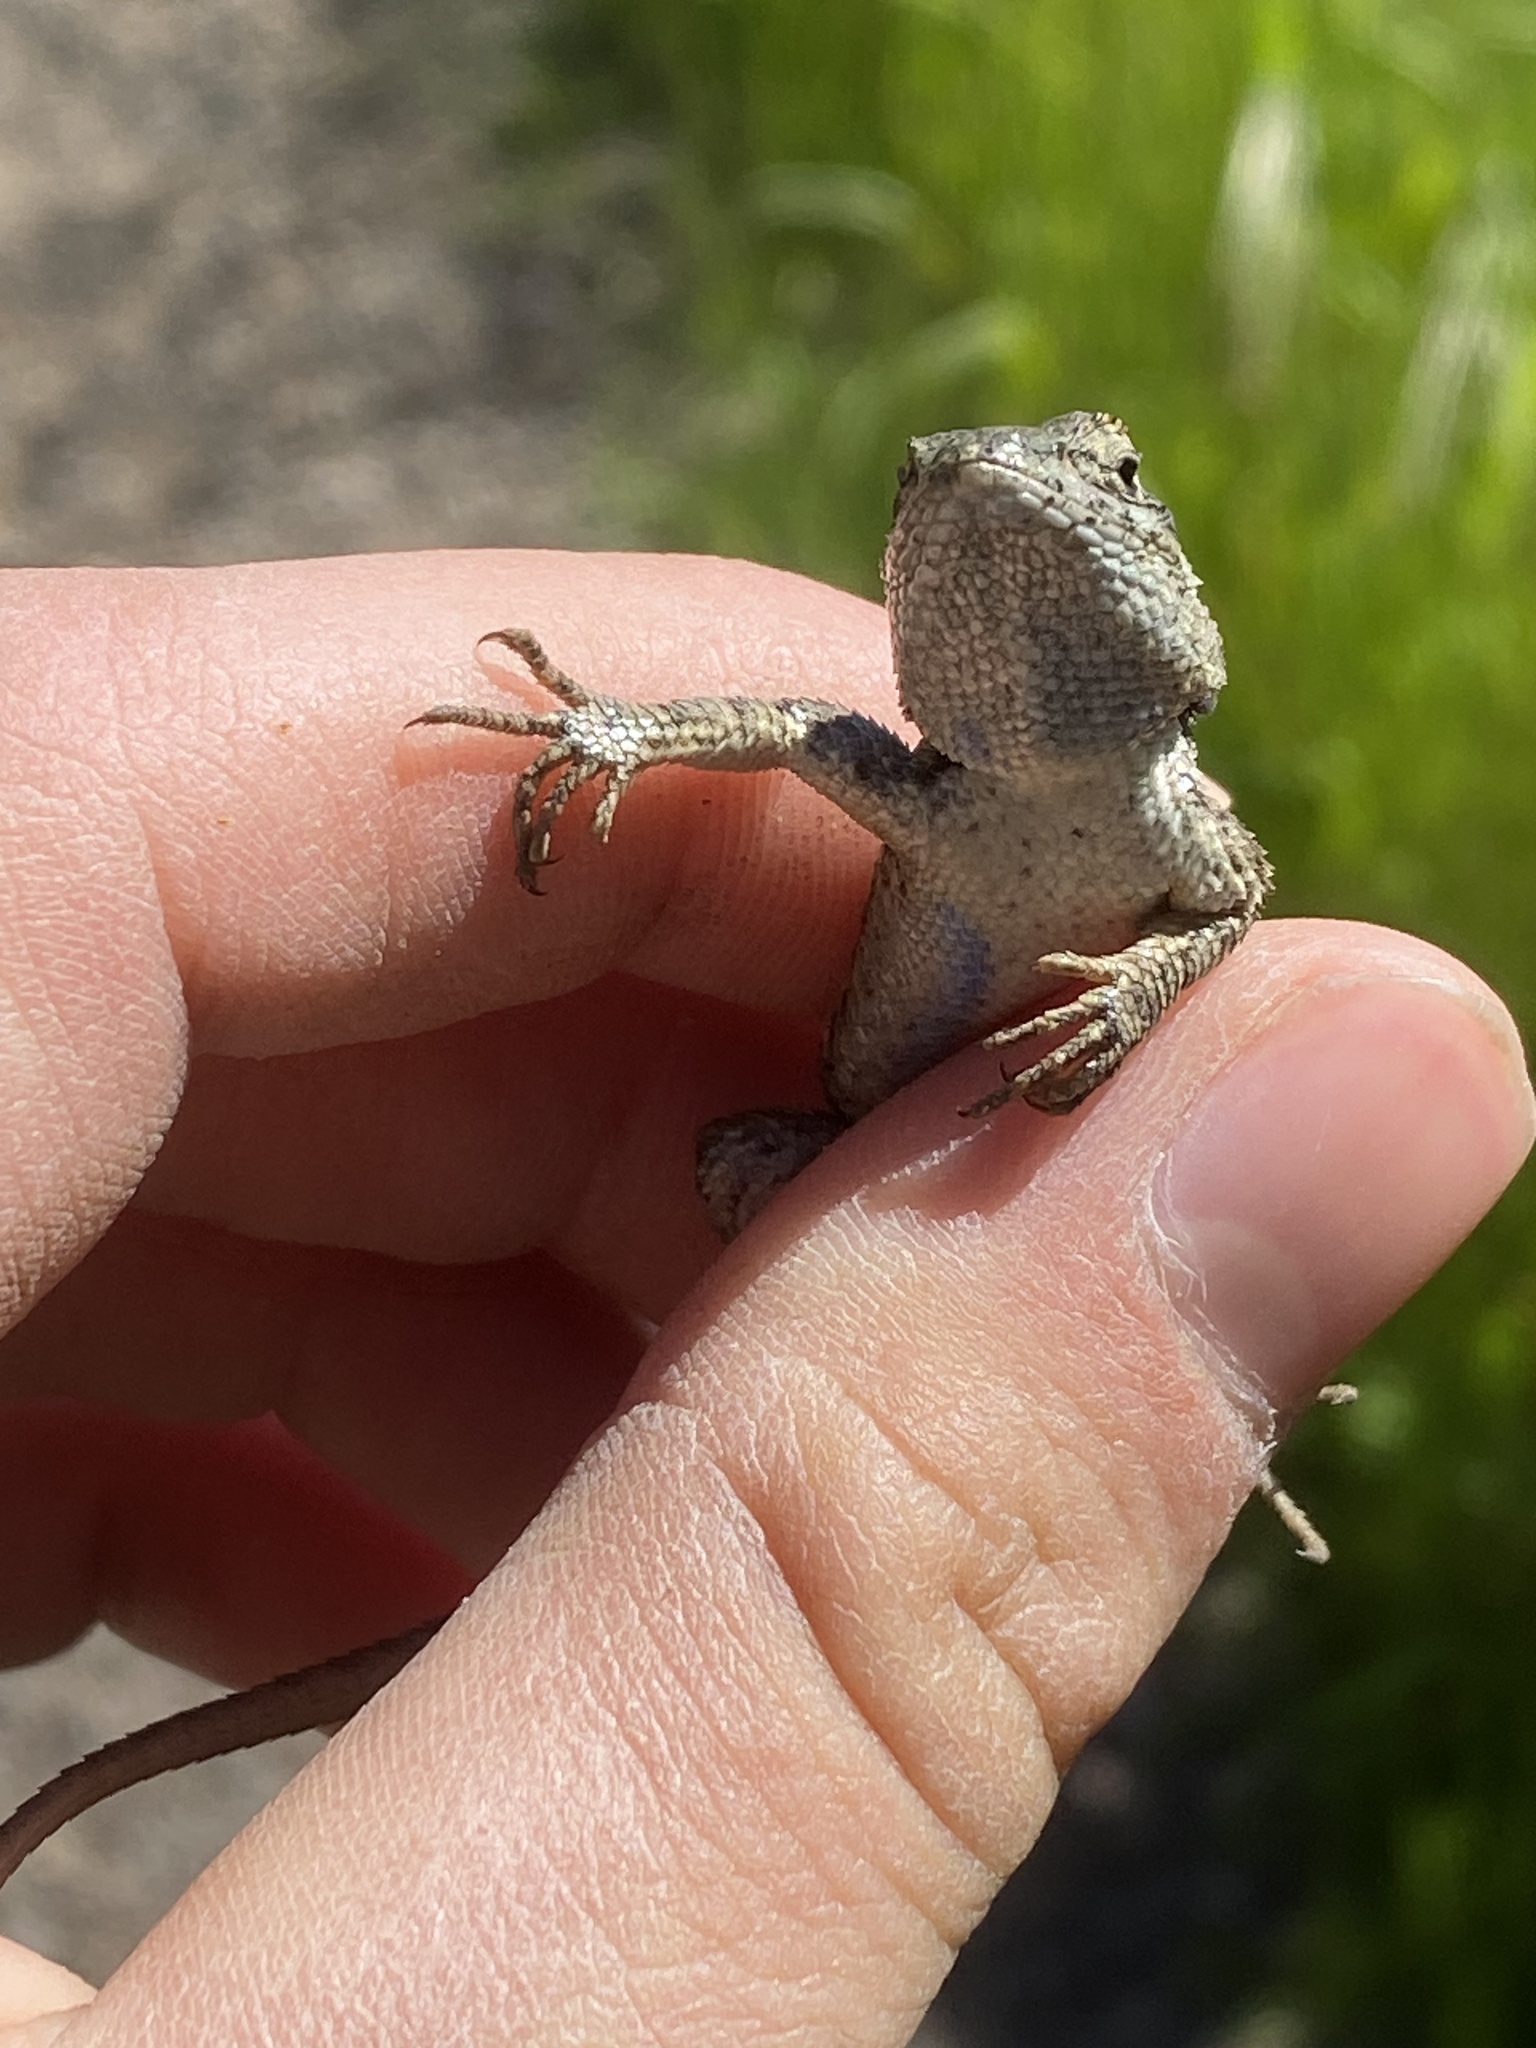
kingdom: Animalia
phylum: Chordata
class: Squamata
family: Phrynosomatidae
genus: Sceloporus
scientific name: Sceloporus occidentalis
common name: Western fence lizard
